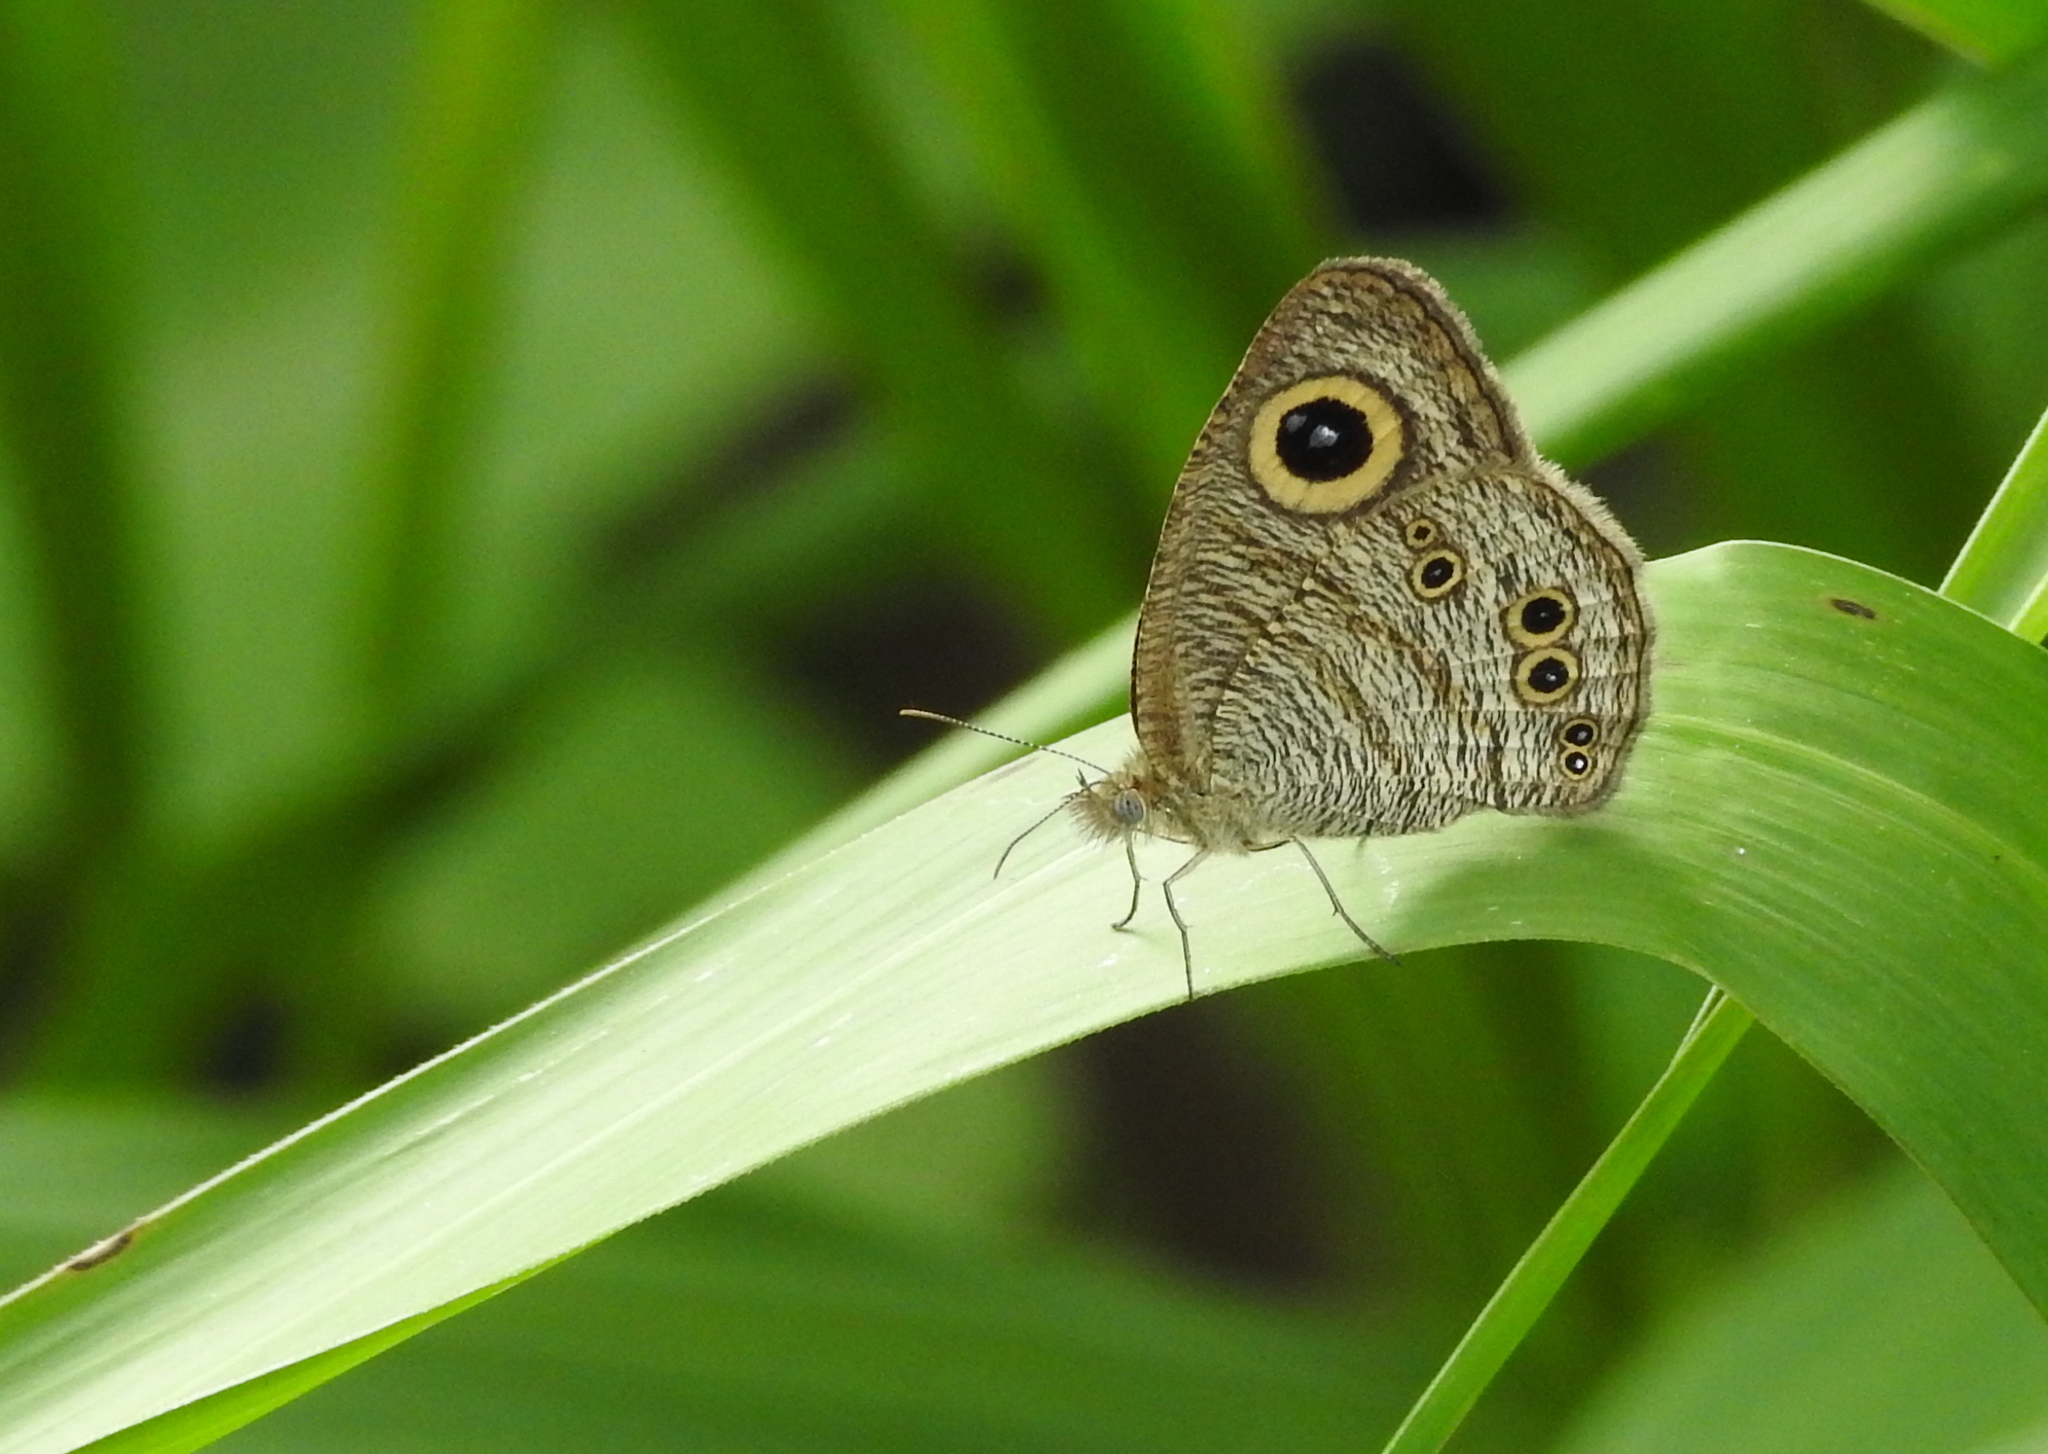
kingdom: Animalia
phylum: Arthropoda
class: Insecta
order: Lepidoptera
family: Nymphalidae
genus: Ypthima
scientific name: Ypthima baldus
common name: Common five-ring
